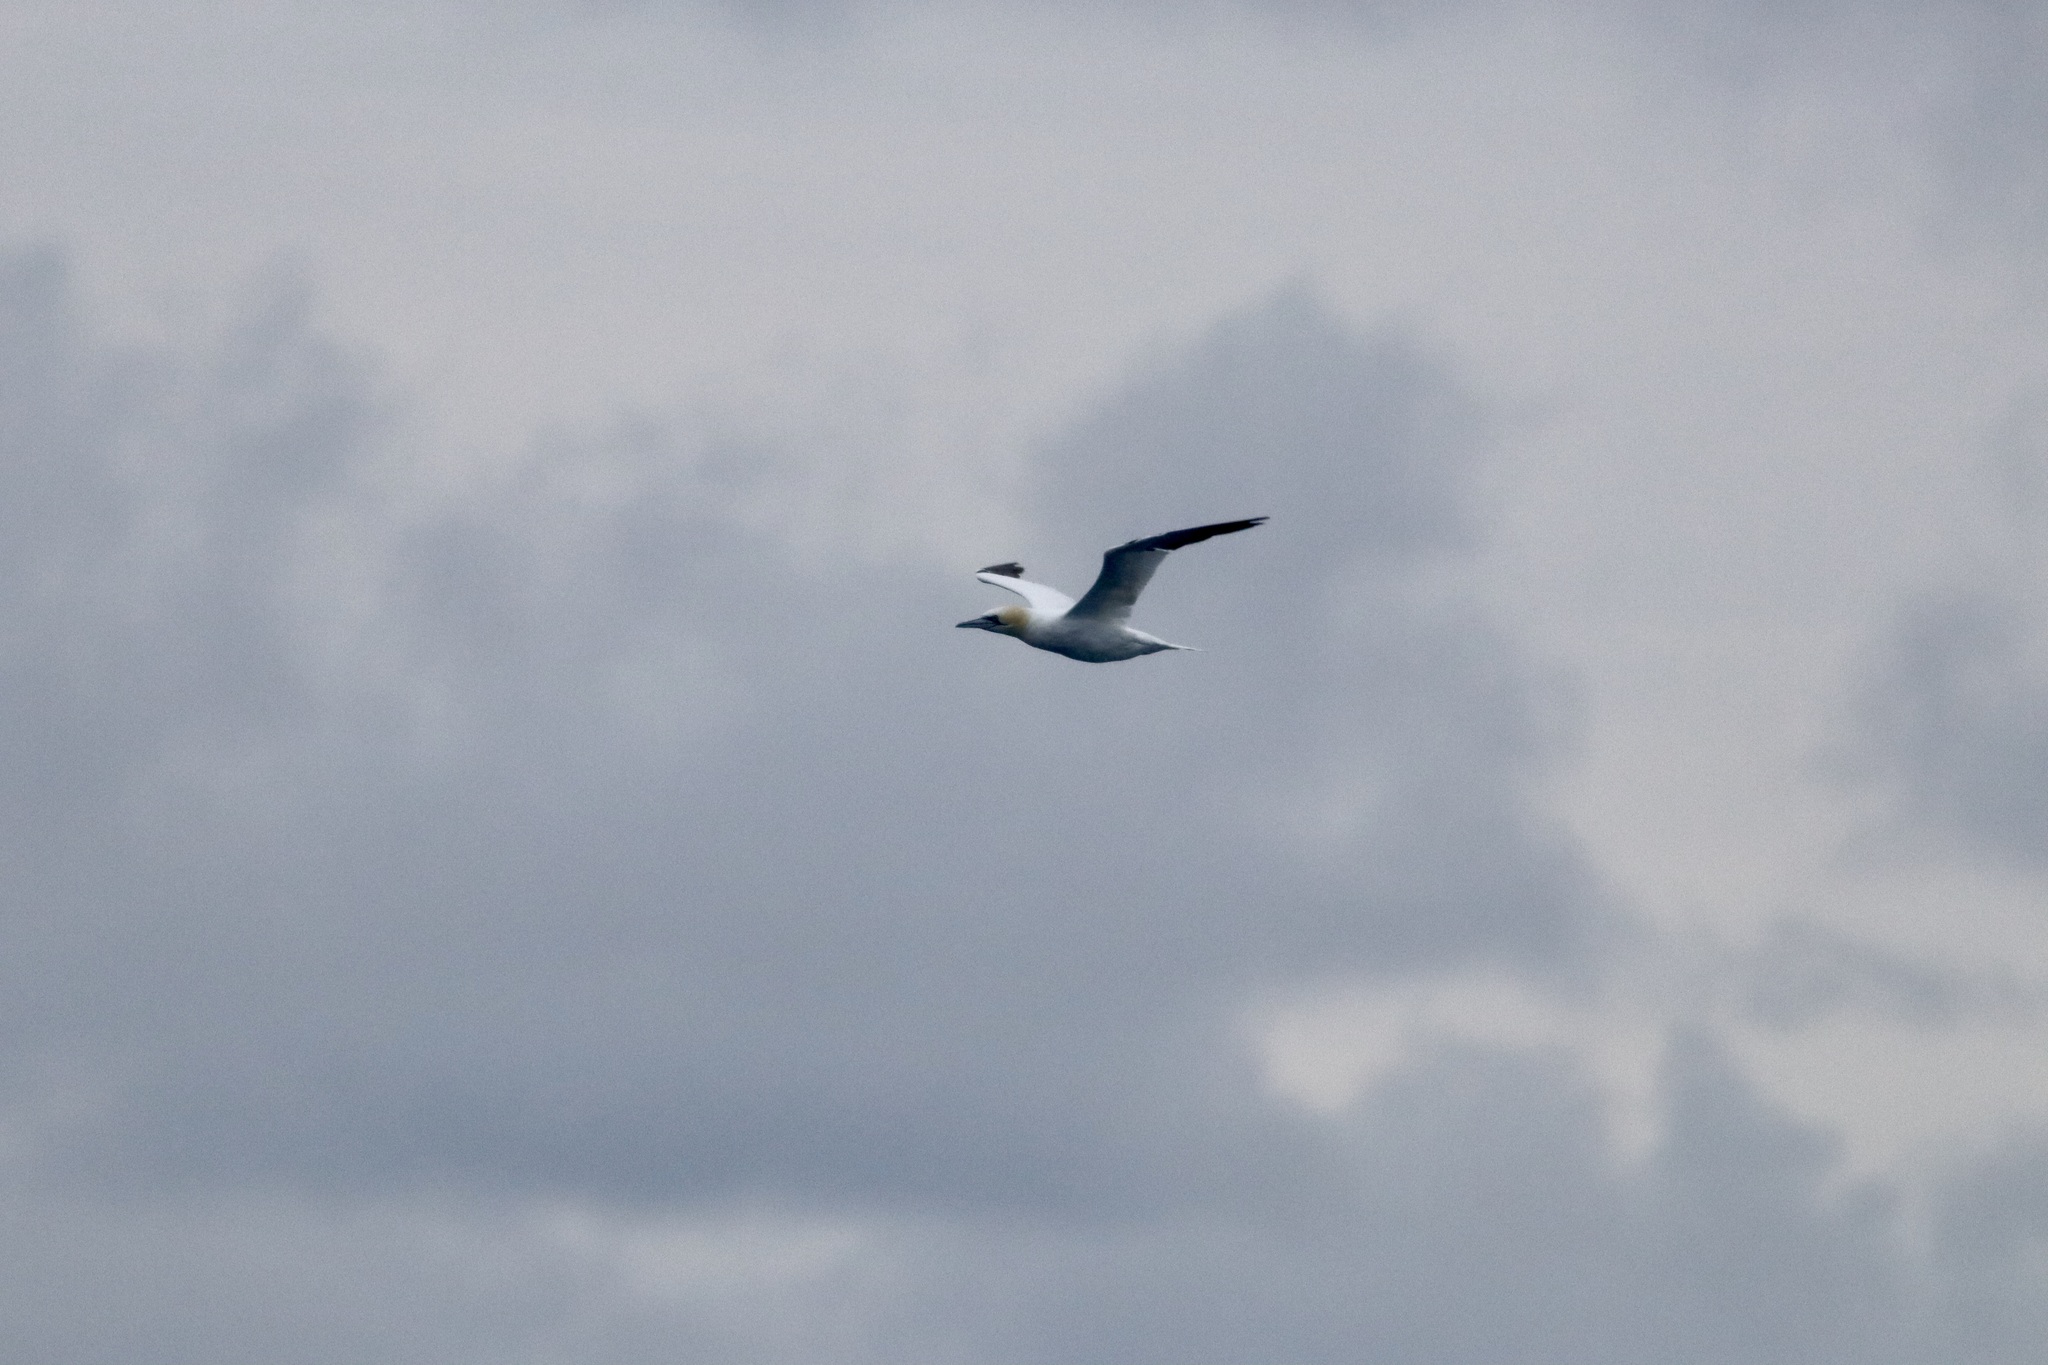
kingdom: Animalia
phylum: Chordata
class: Aves
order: Suliformes
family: Sulidae
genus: Morus
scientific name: Morus bassanus
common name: Northern gannet
